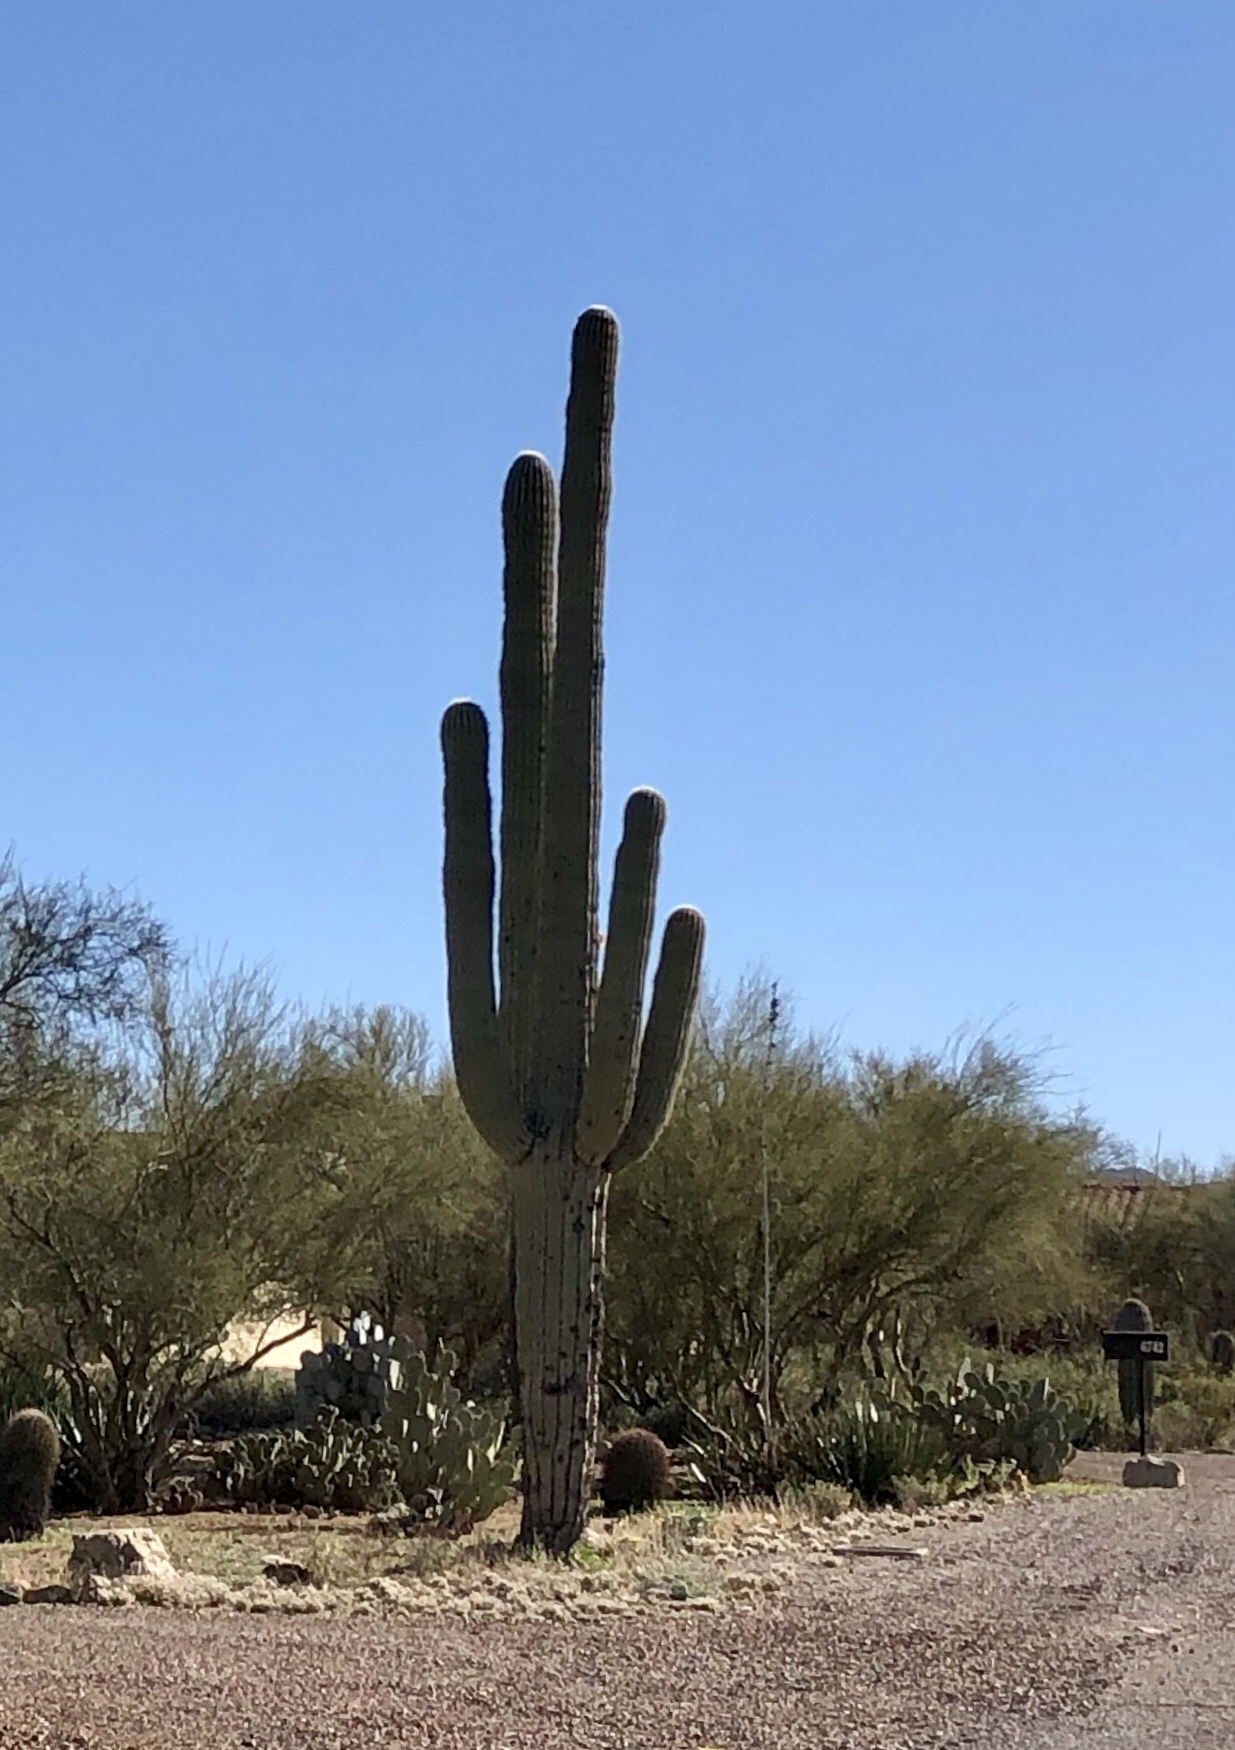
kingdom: Plantae
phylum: Tracheophyta
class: Magnoliopsida
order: Caryophyllales
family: Cactaceae
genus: Carnegiea
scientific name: Carnegiea gigantea
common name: Saguaro
